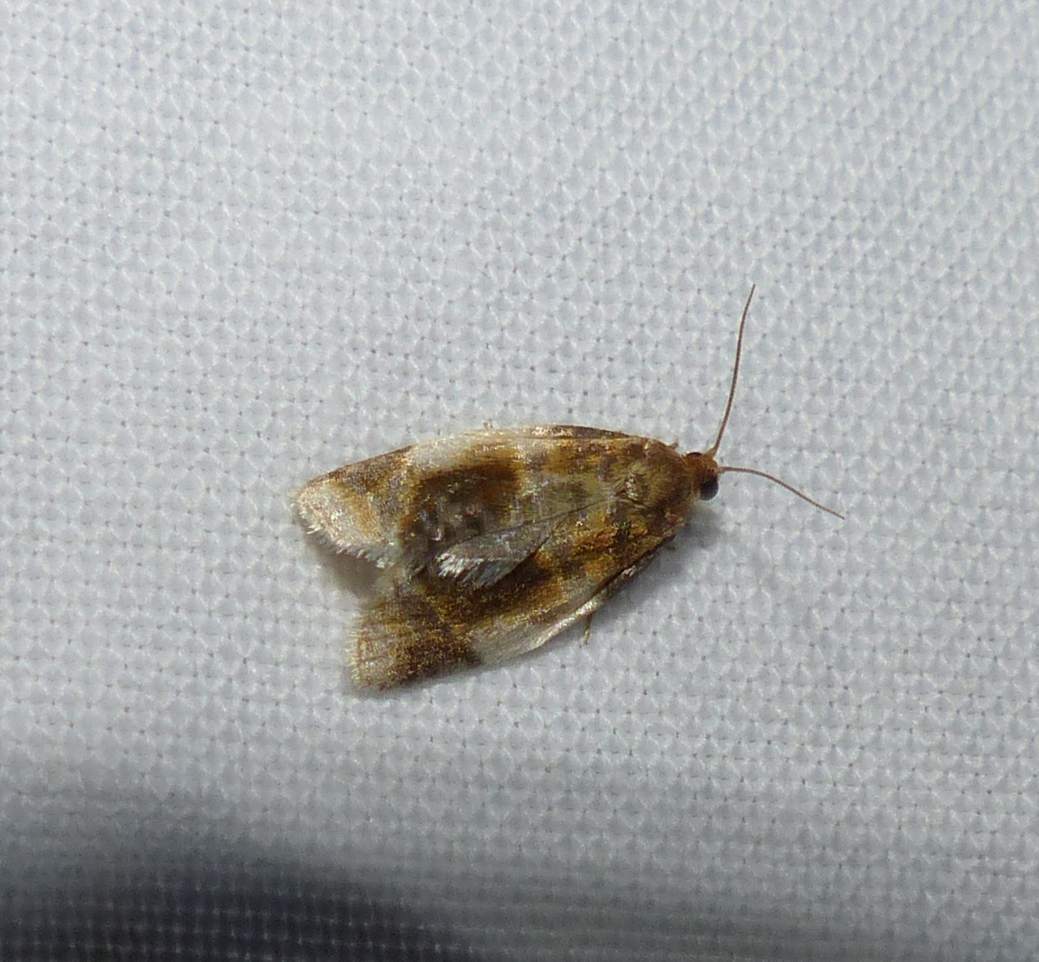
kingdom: Animalia
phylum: Arthropoda
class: Insecta
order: Lepidoptera
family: Tortricidae
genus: Clepsis
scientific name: Clepsis melaleucanus
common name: American apple tortrix
